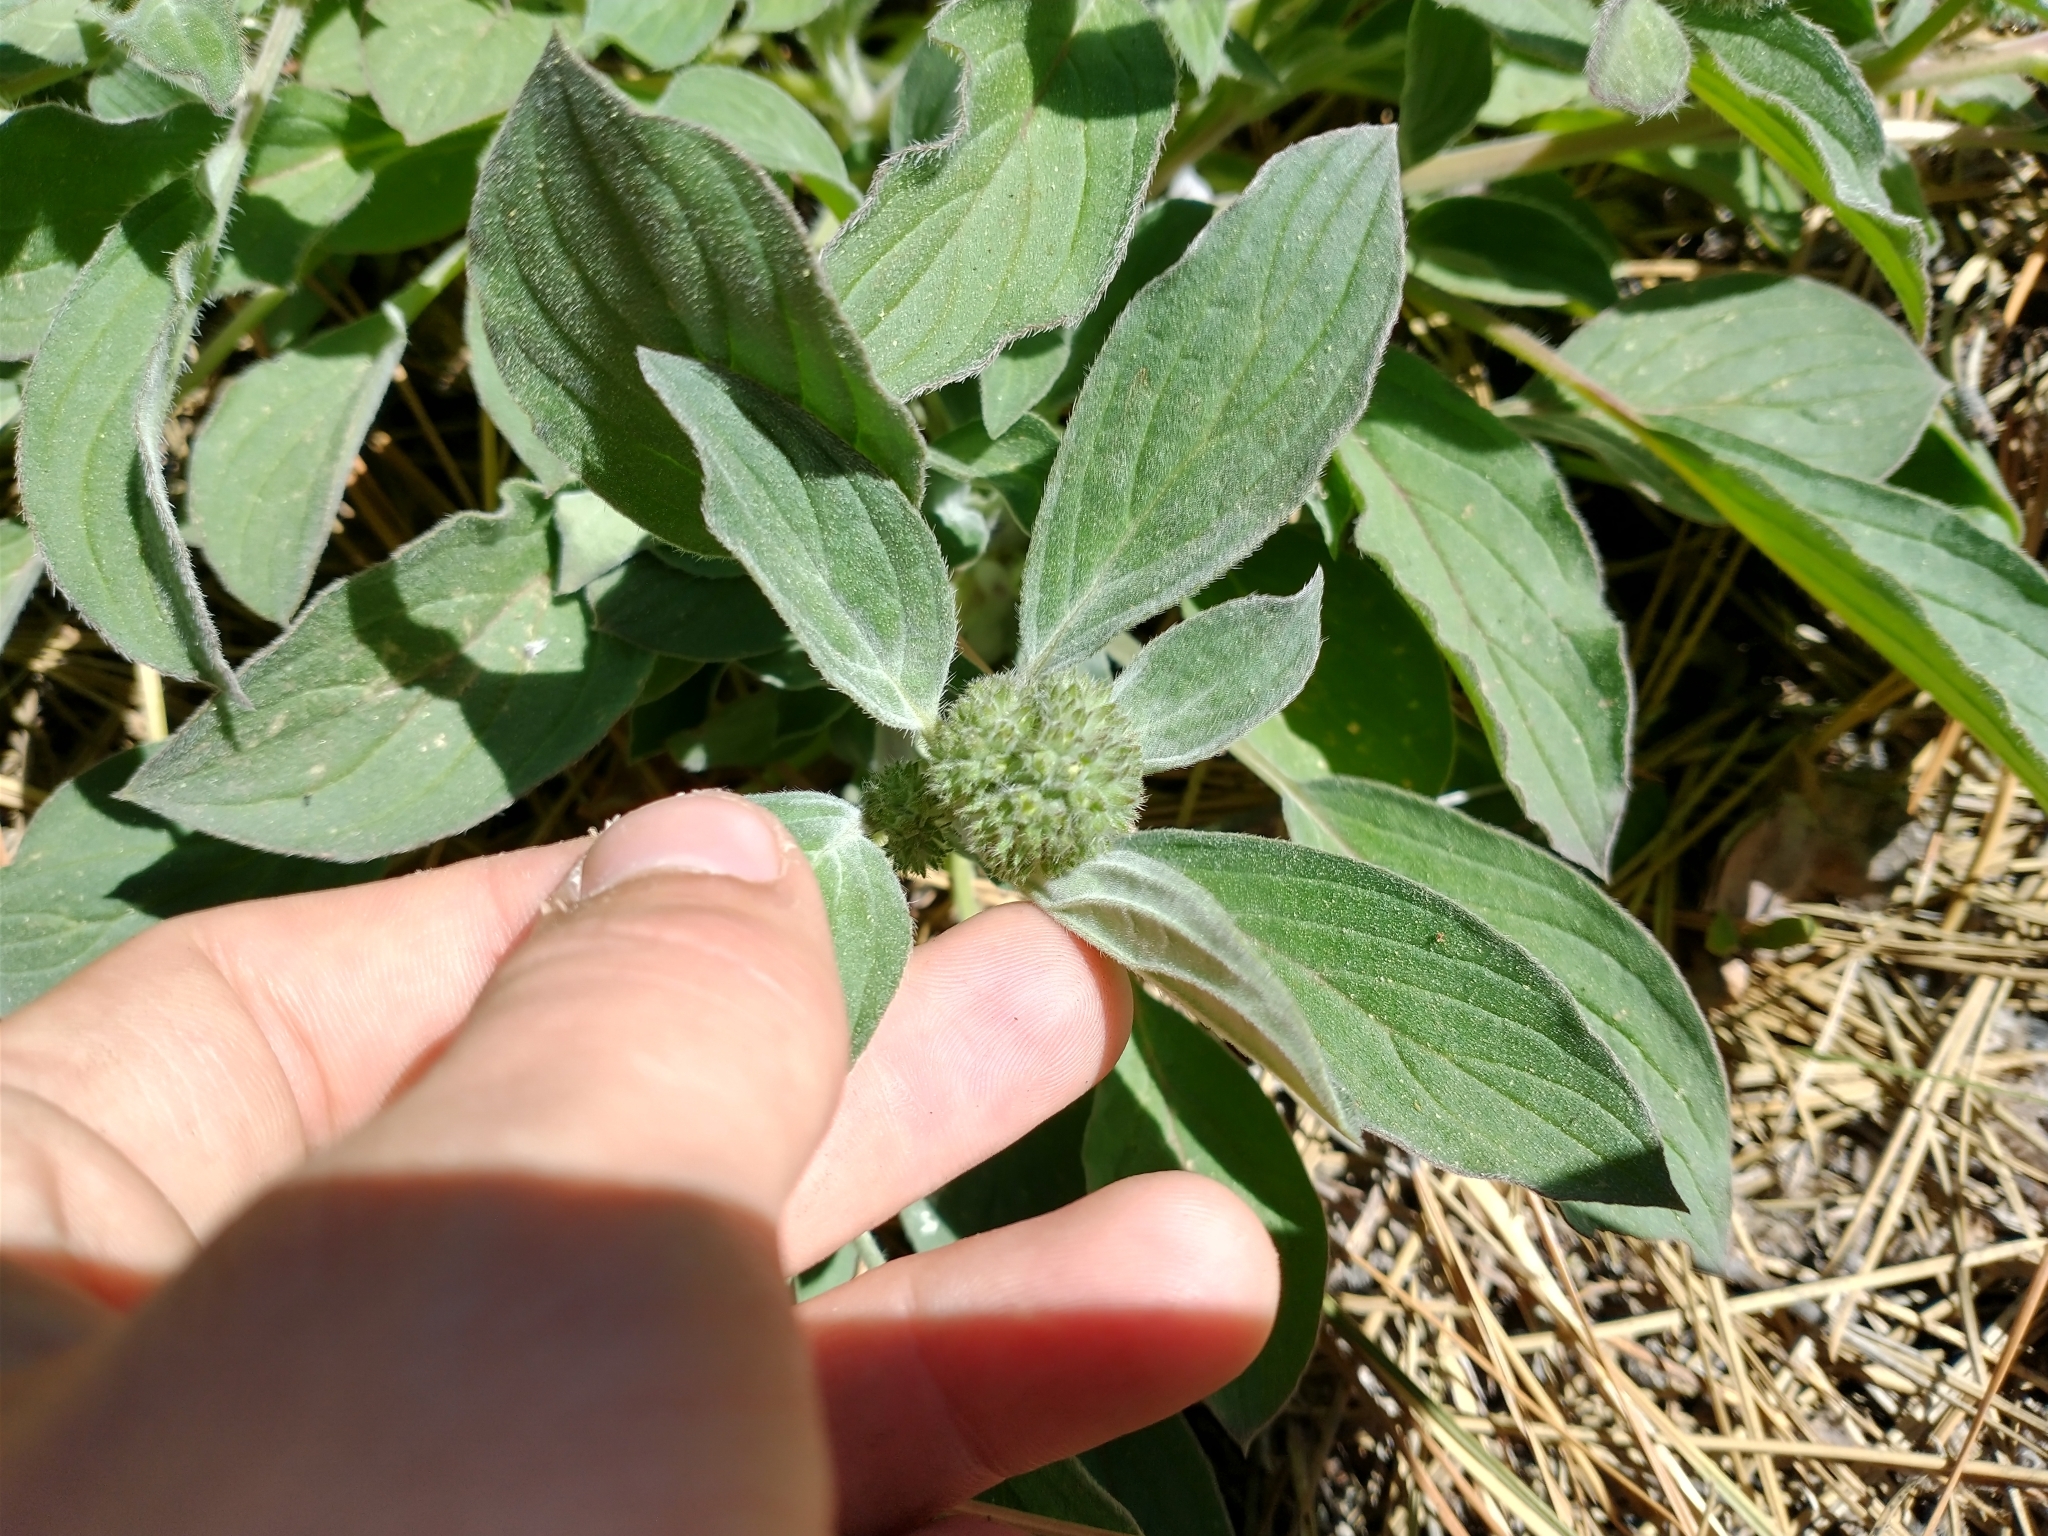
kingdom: Plantae
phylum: Tracheophyta
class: Magnoliopsida
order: Boraginales
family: Hydrophyllaceae
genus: Phacelia
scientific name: Phacelia hastata
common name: Silver-leaved phacelia
